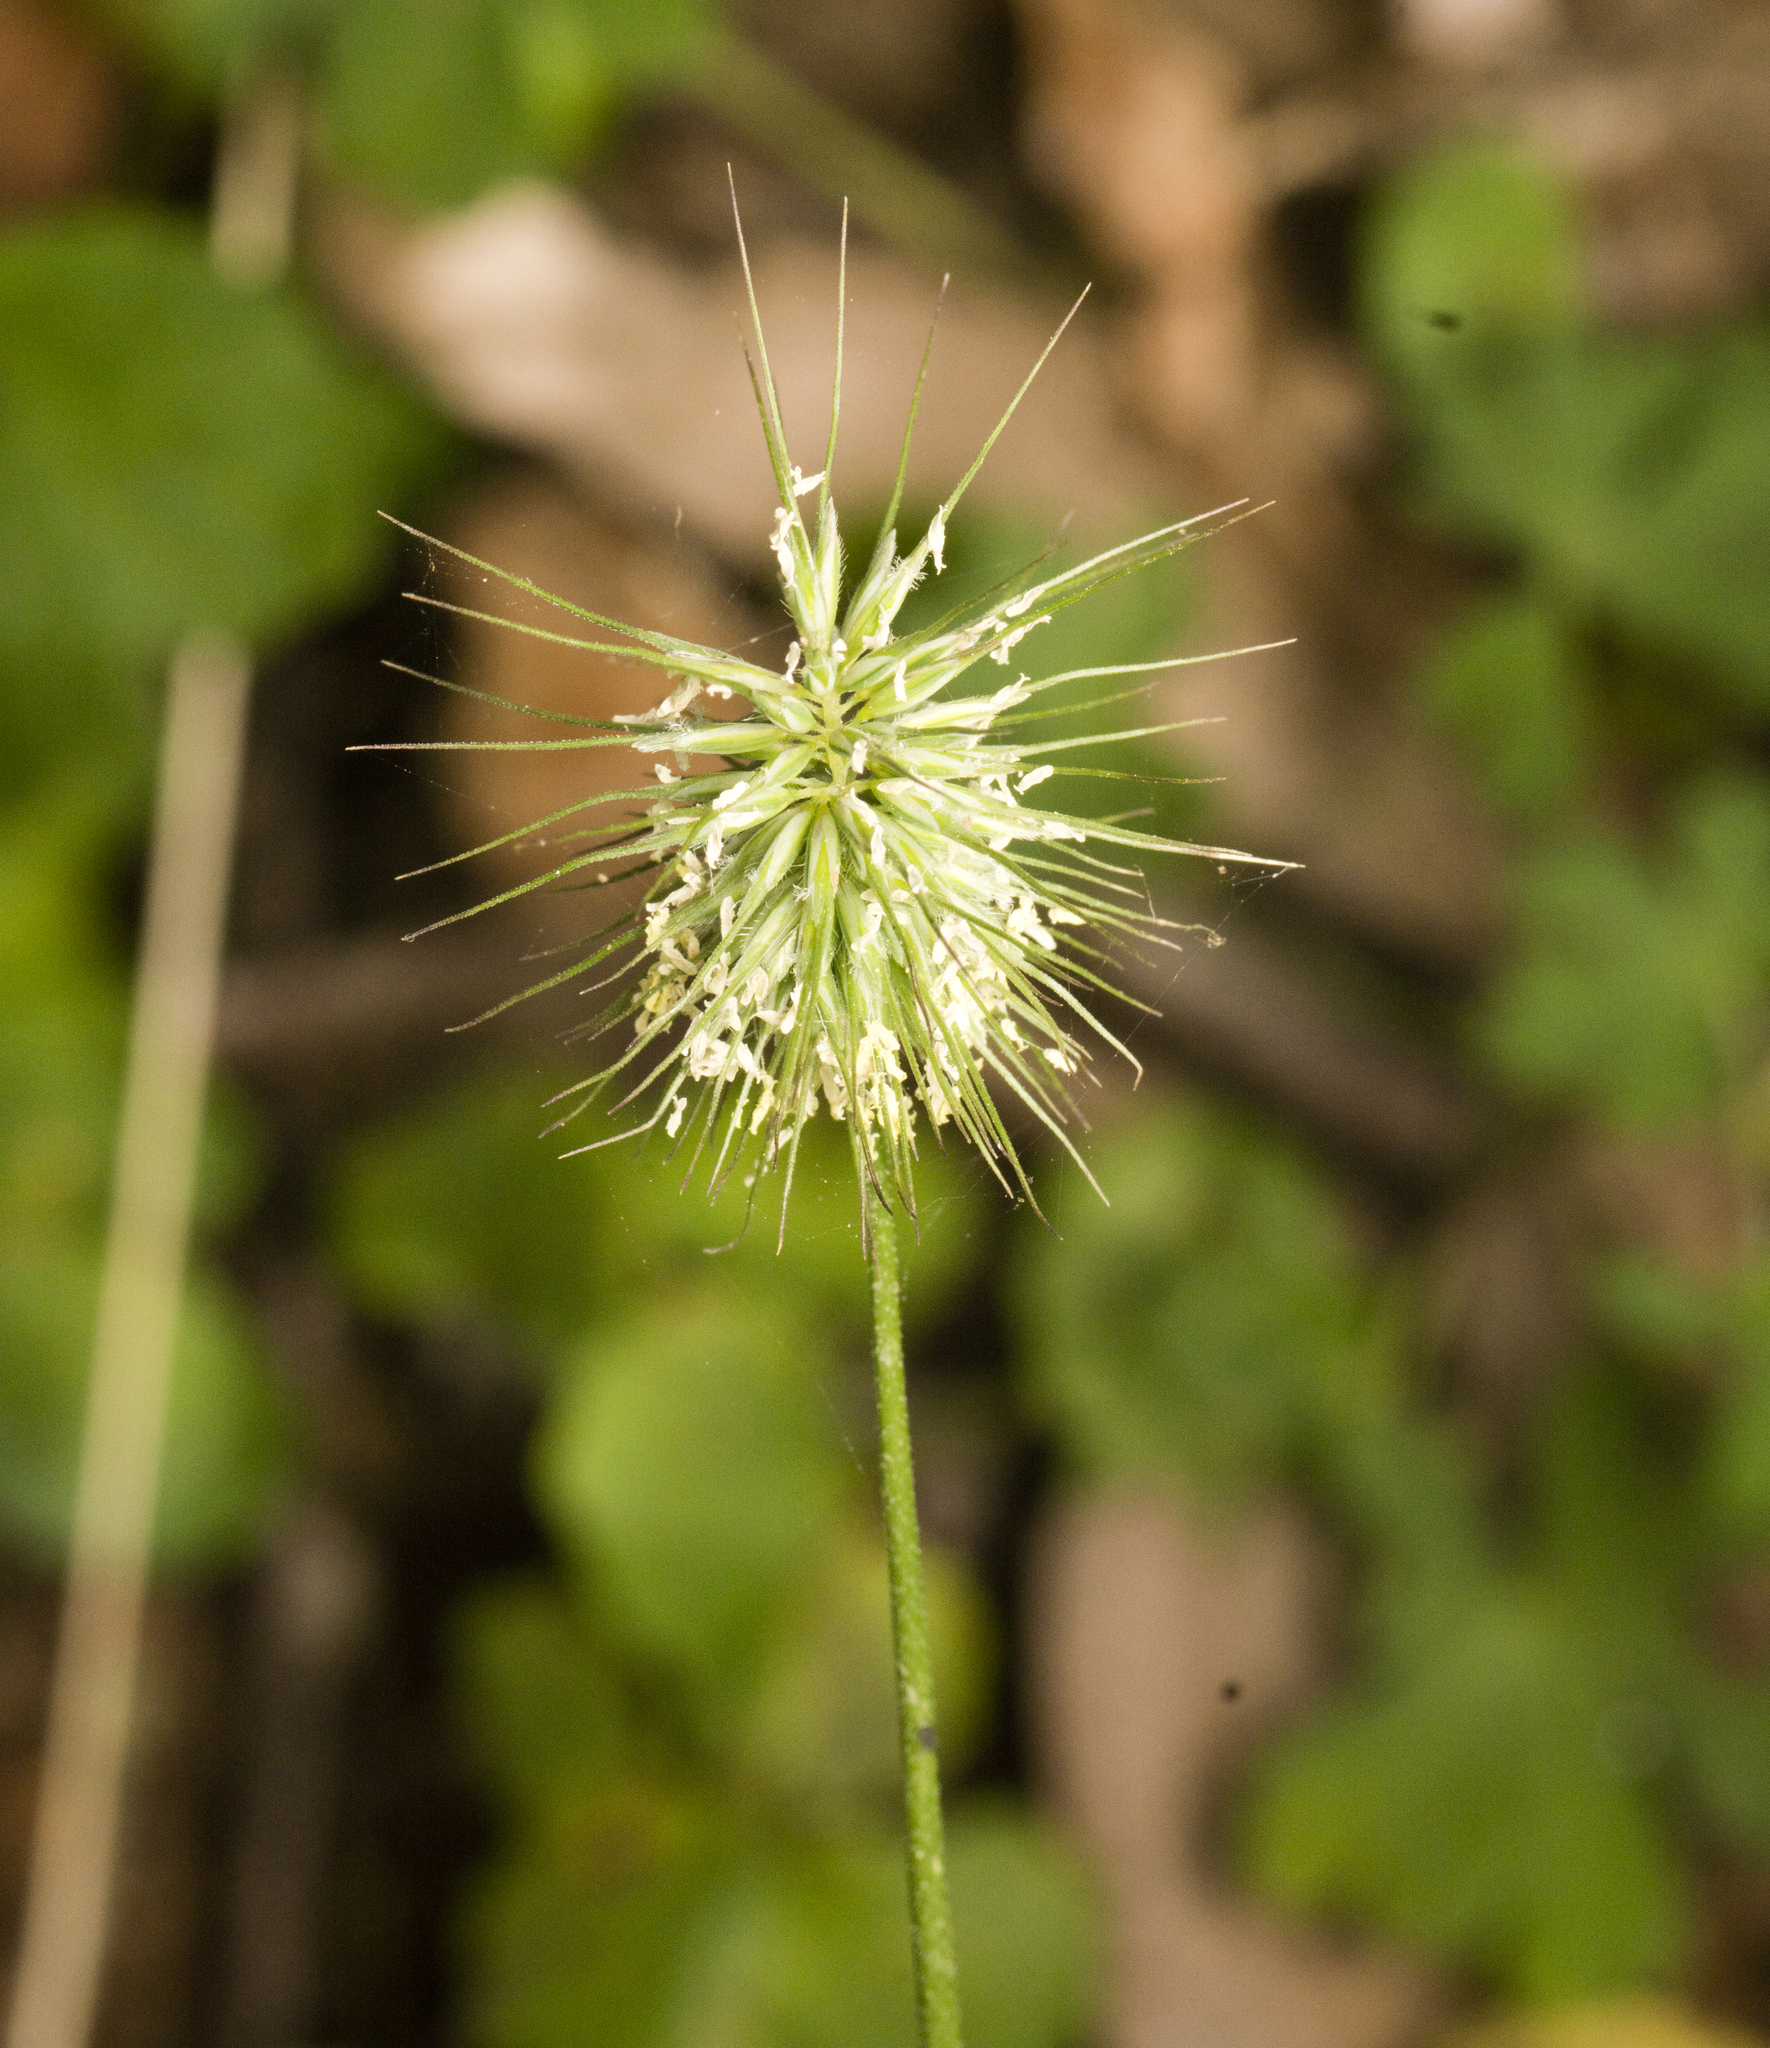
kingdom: Plantae
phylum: Tracheophyta
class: Liliopsida
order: Poales
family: Poaceae
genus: Echinopogon
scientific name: Echinopogon ovatus
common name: Hedgehog-grass
